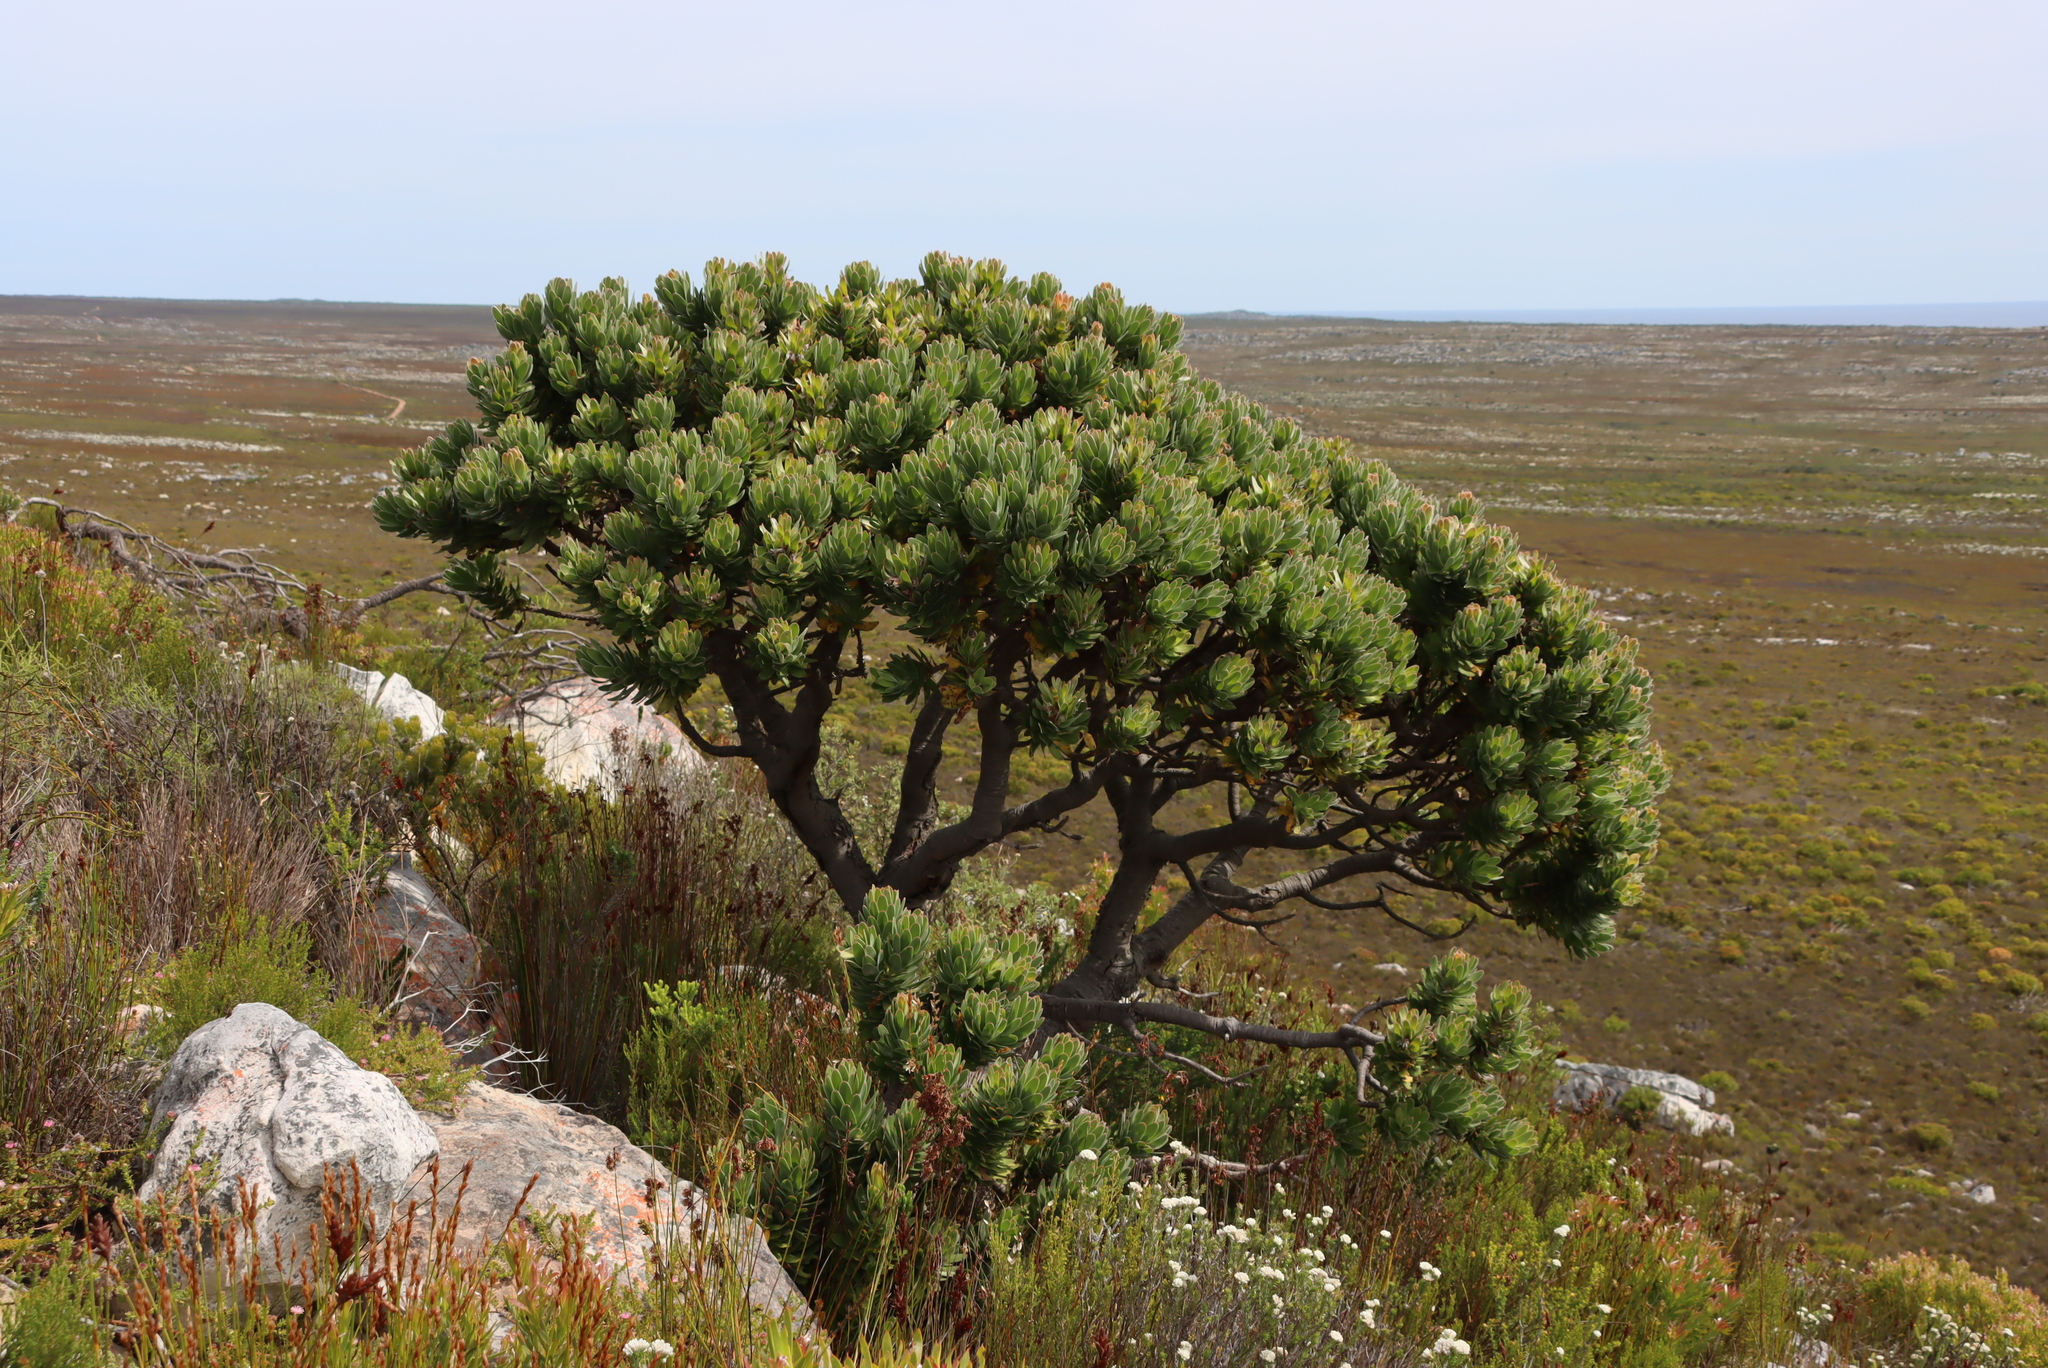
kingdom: Plantae
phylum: Tracheophyta
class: Magnoliopsida
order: Proteales
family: Proteaceae
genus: Mimetes
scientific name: Mimetes fimbriifolius
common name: Fringed bottlebrush
